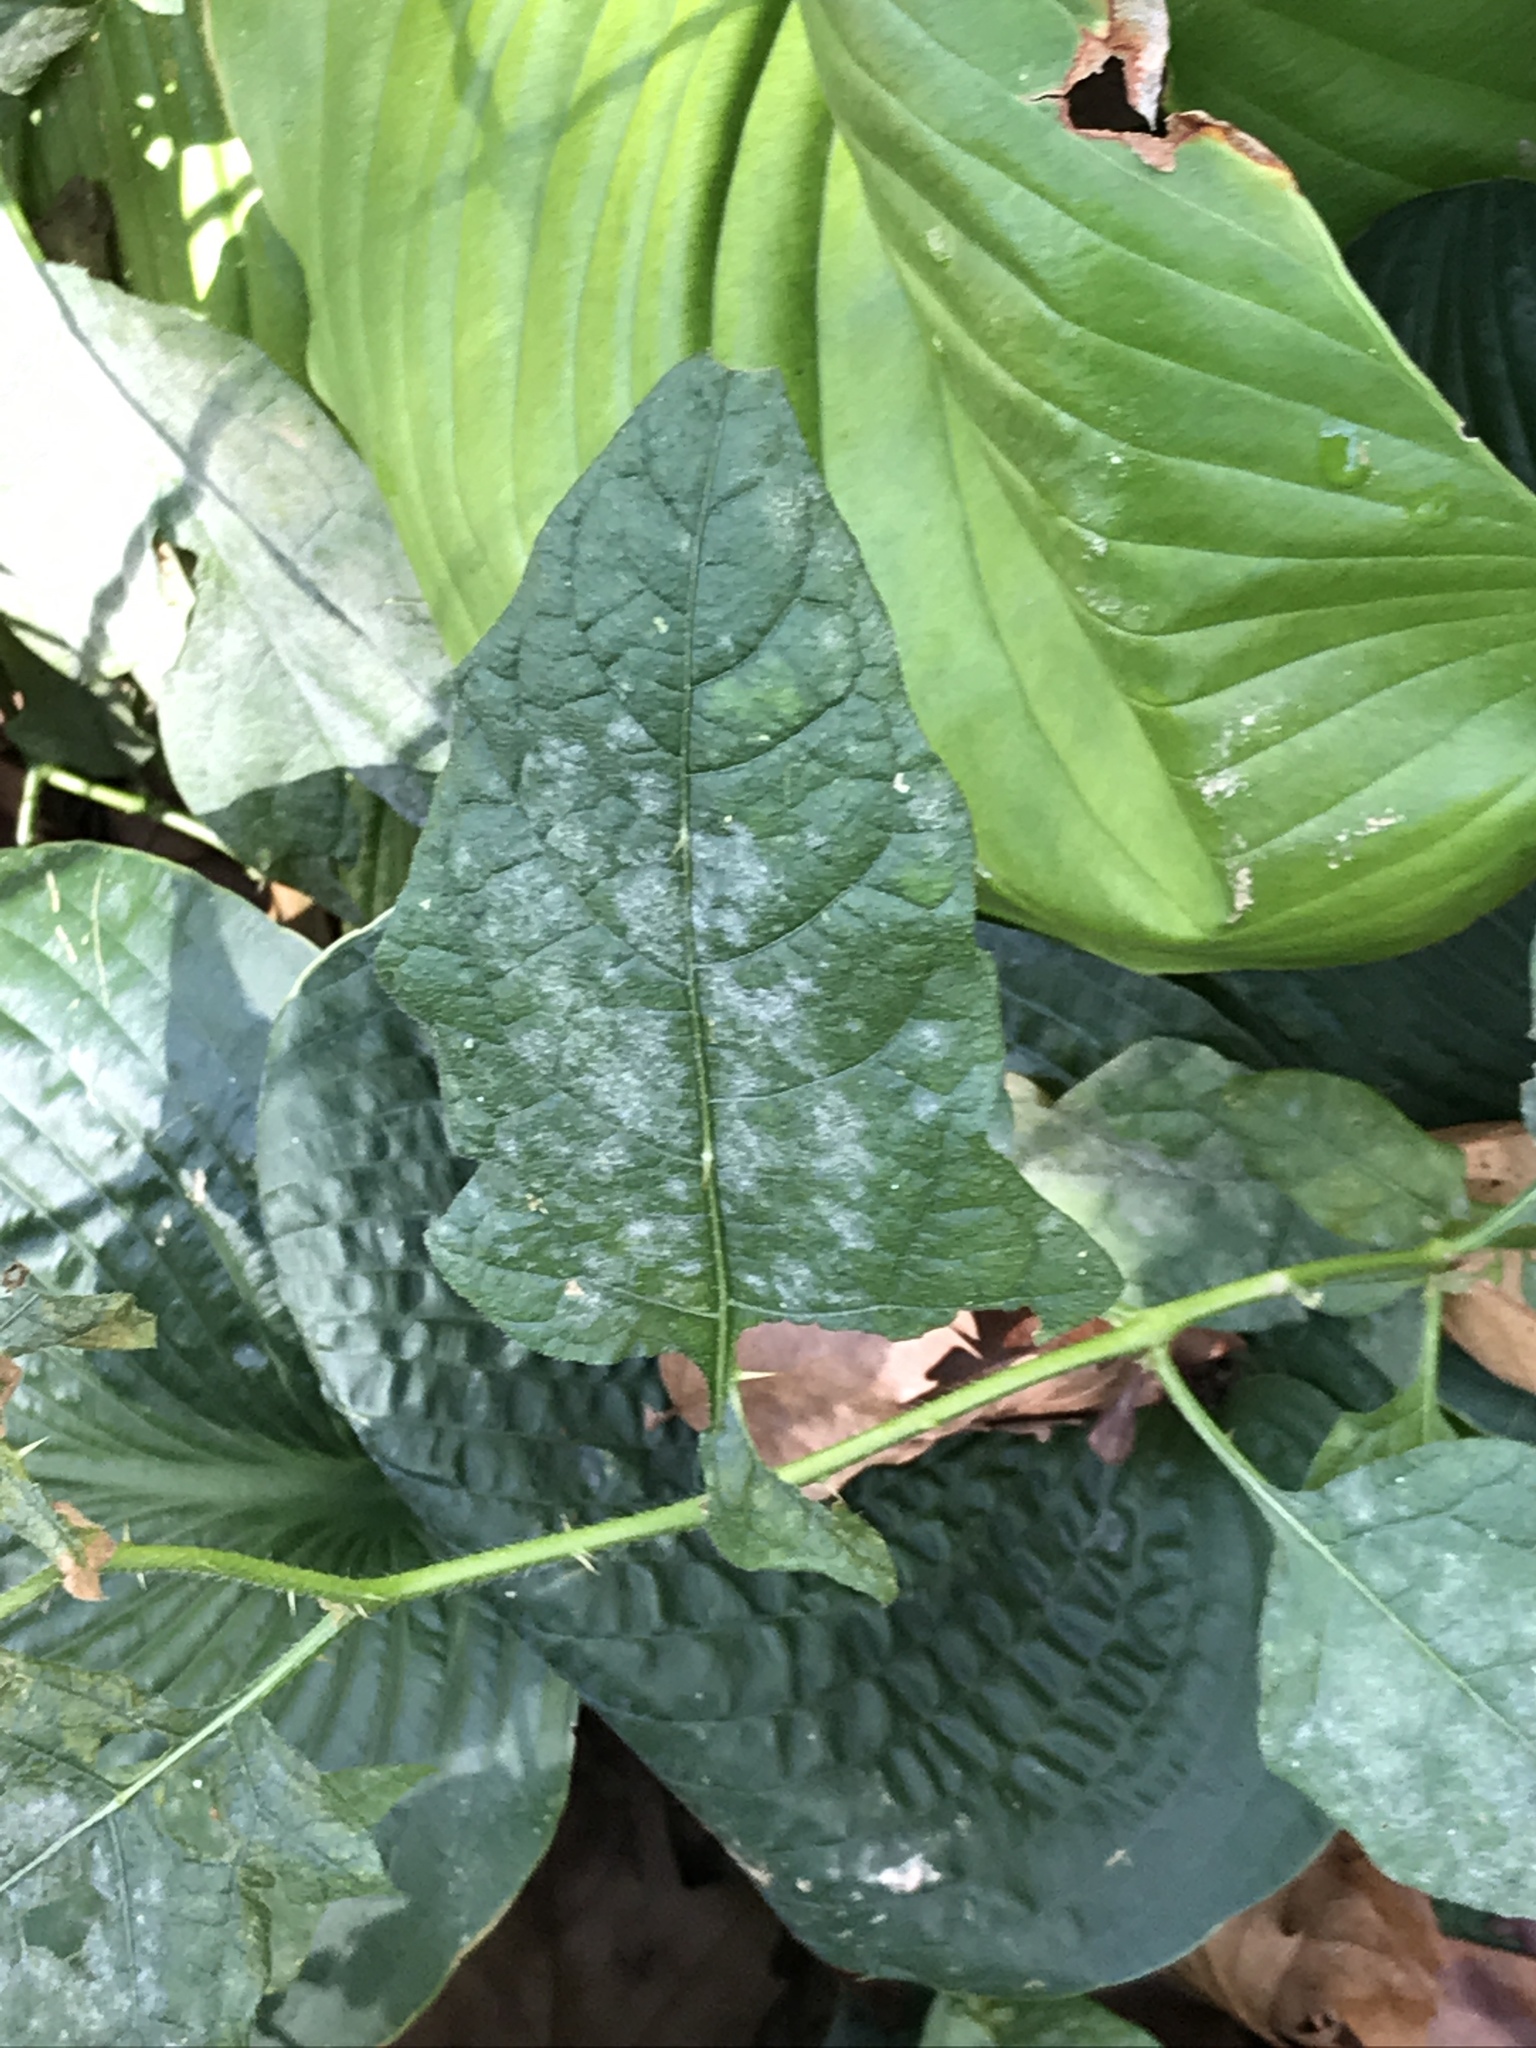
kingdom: Plantae
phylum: Tracheophyta
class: Magnoliopsida
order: Solanales
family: Solanaceae
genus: Solanum
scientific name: Solanum carolinense
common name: Horse-nettle
